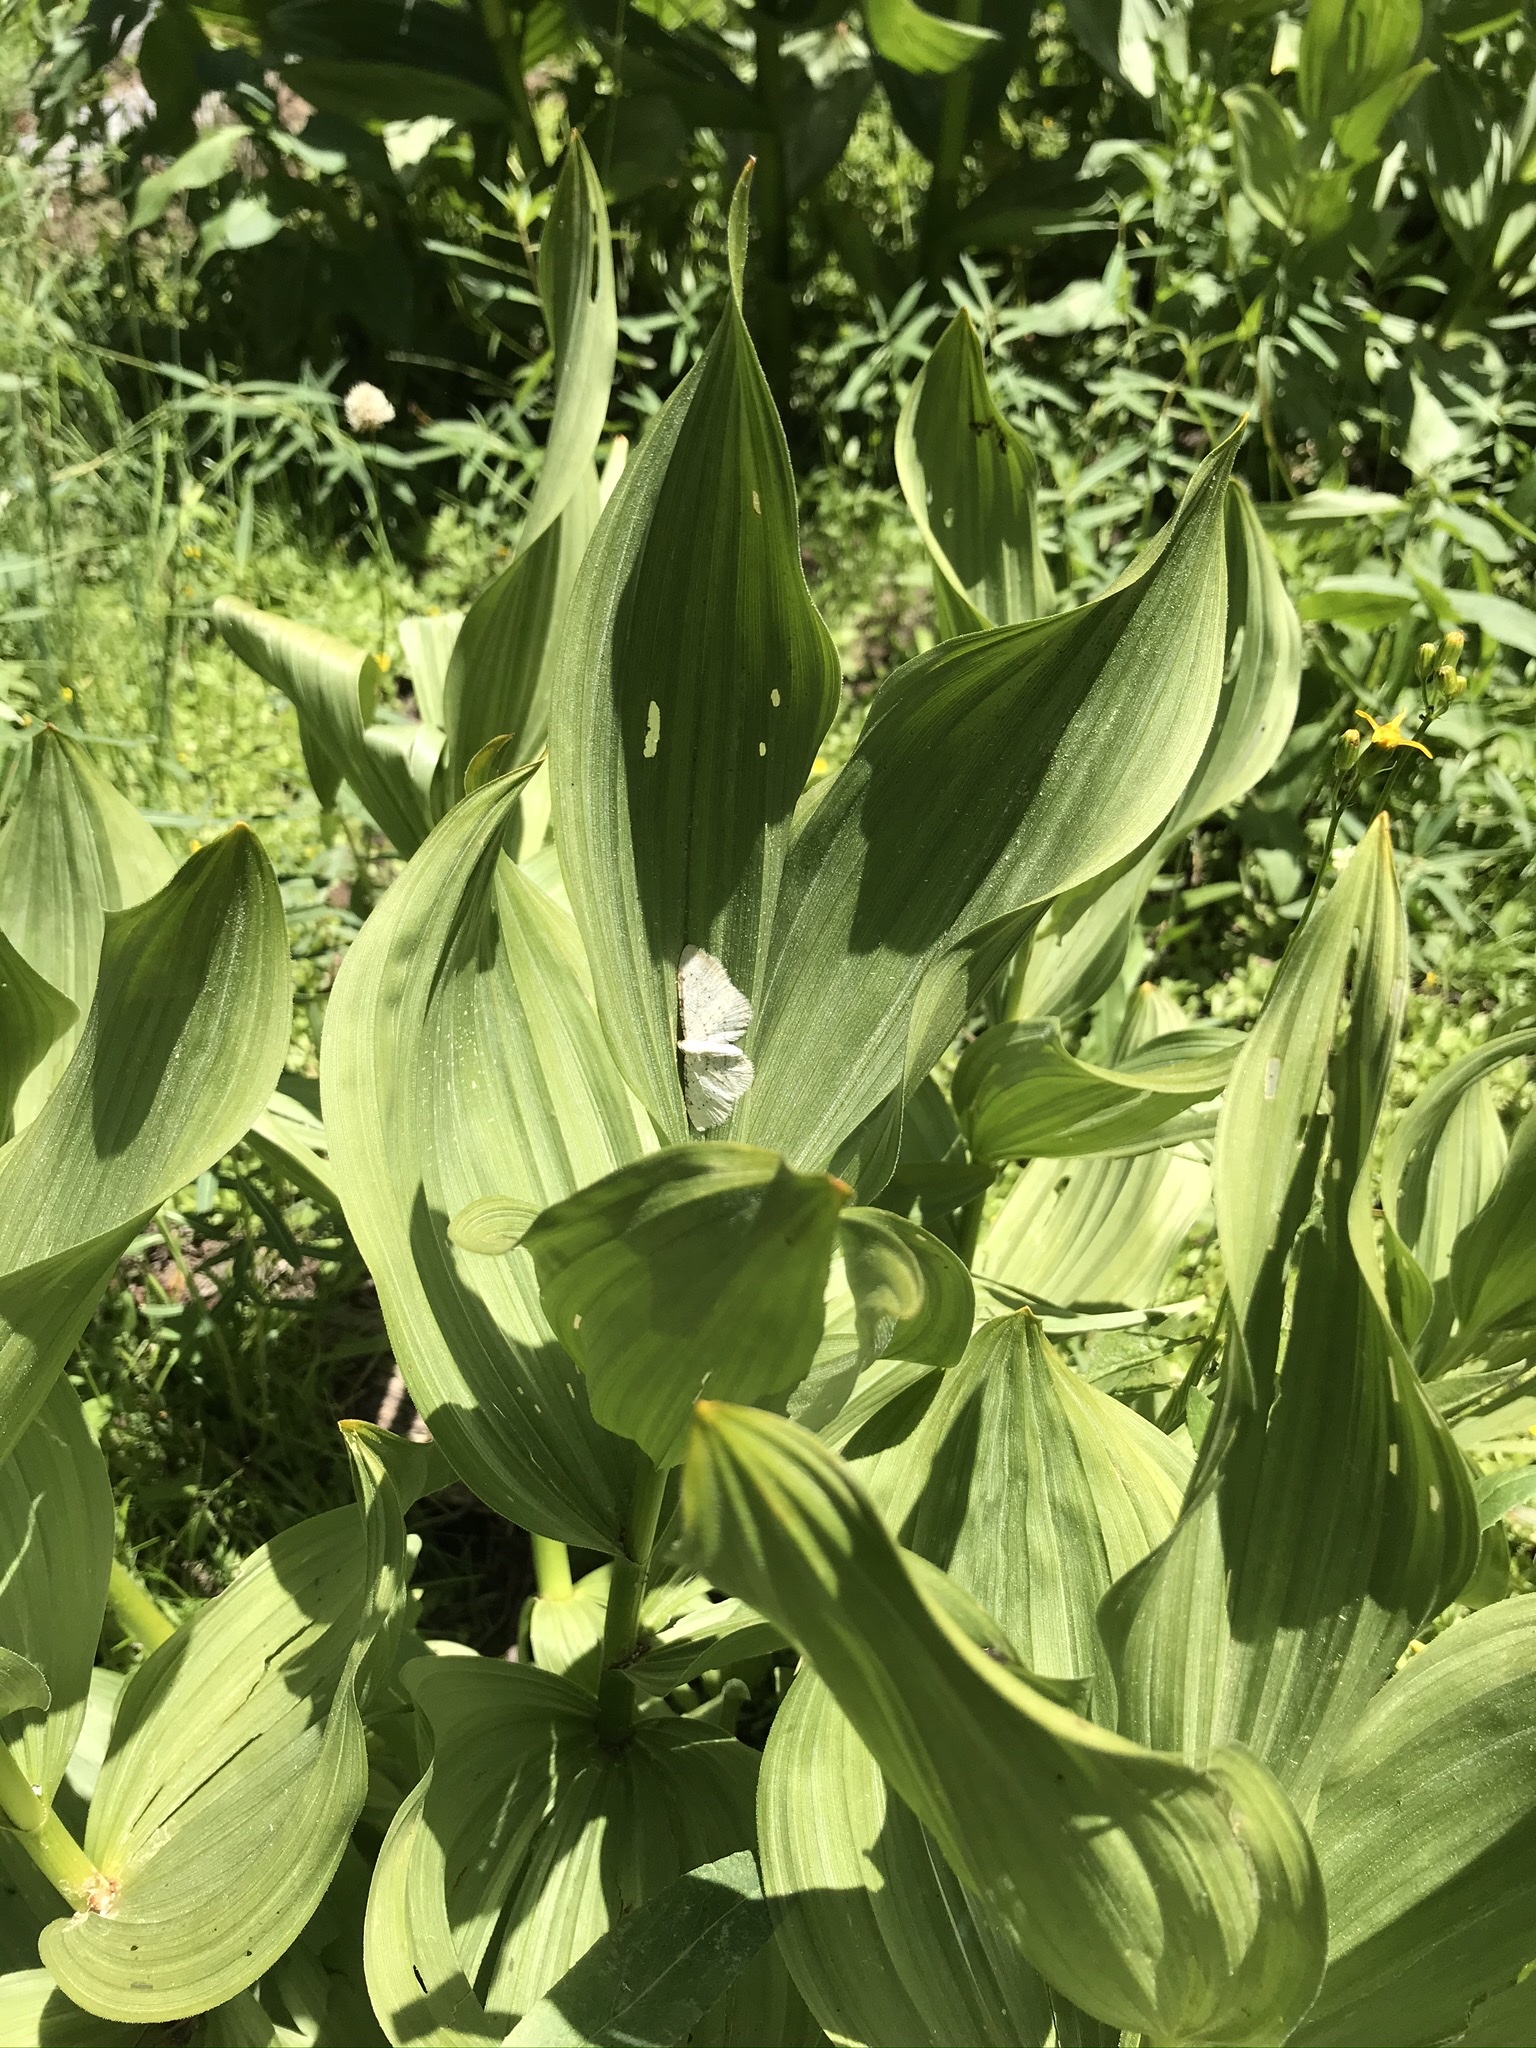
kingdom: Plantae
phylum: Tracheophyta
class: Liliopsida
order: Liliales
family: Melanthiaceae
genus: Veratrum
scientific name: Veratrum californicum
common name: California veratrum
